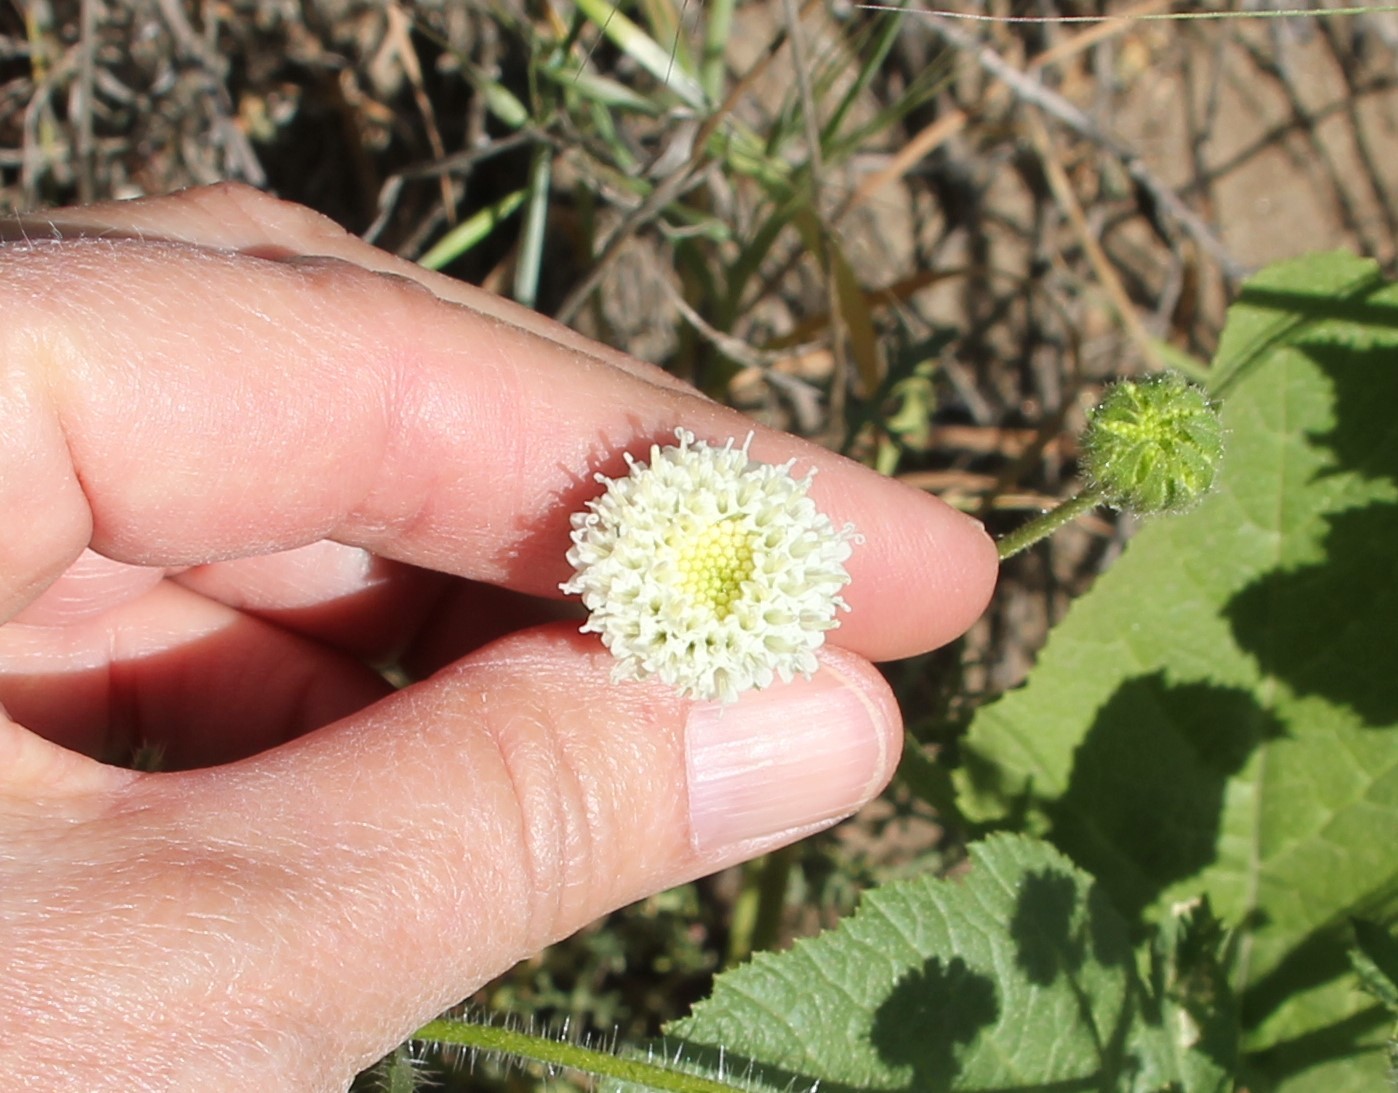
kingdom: Plantae
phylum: Tracheophyta
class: Magnoliopsida
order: Asterales
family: Asteraceae
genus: Chaenactis
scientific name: Chaenactis artemisiifolia
